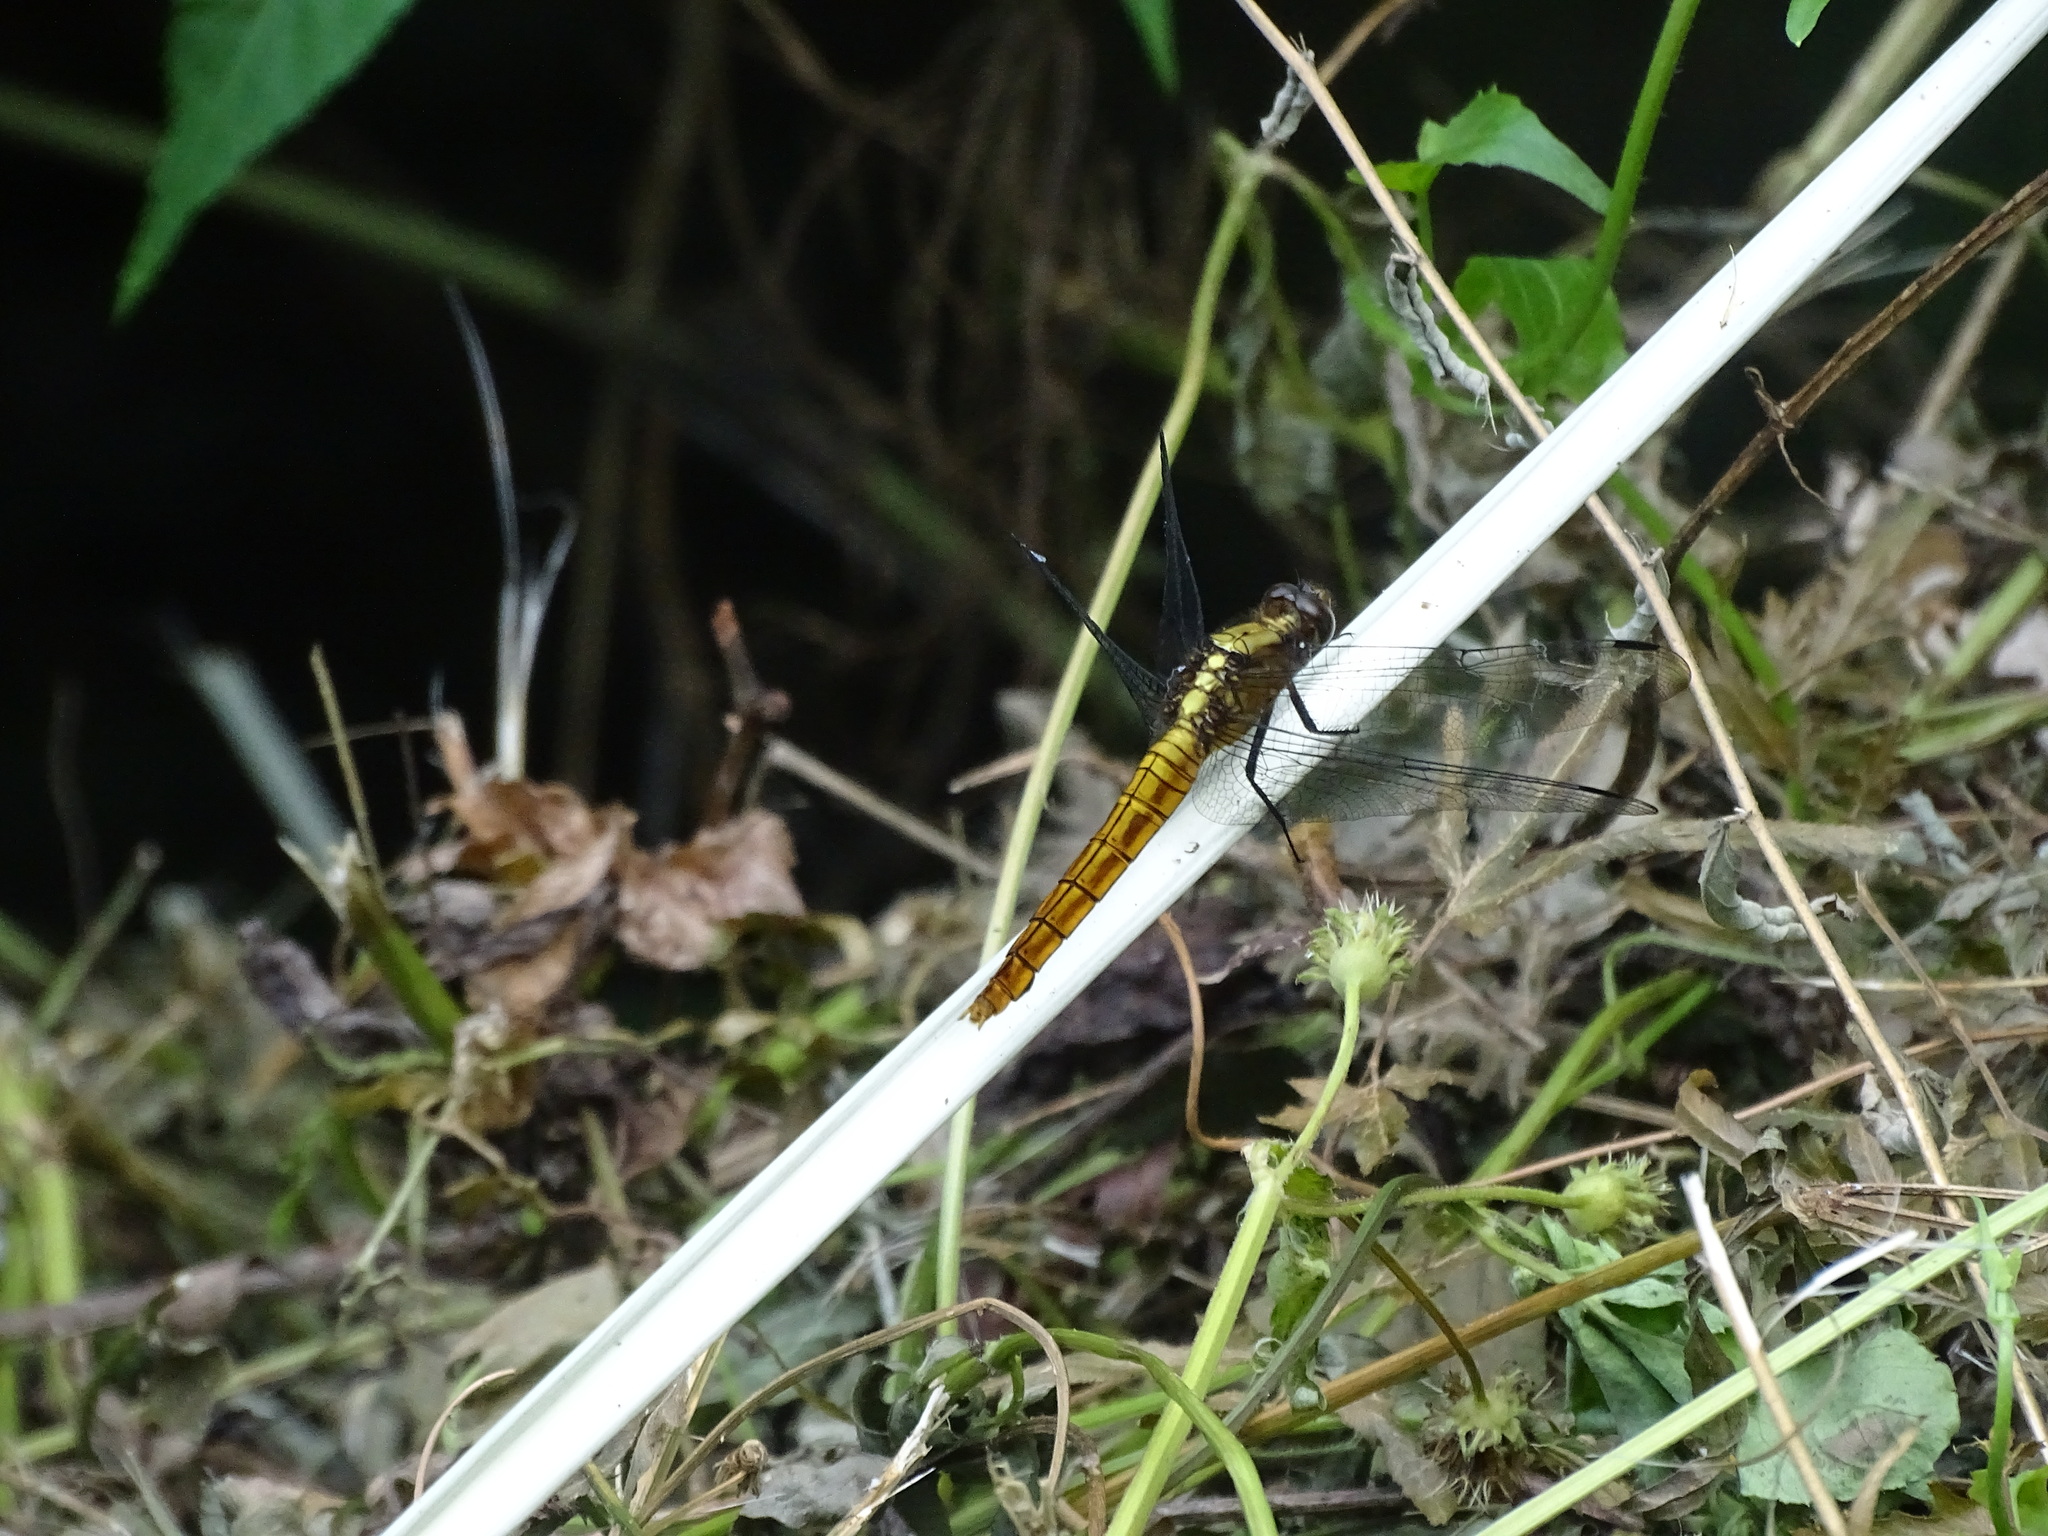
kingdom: Animalia
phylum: Arthropoda
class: Insecta
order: Odonata
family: Libellulidae
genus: Orthetrum
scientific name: Orthetrum pruinosum
